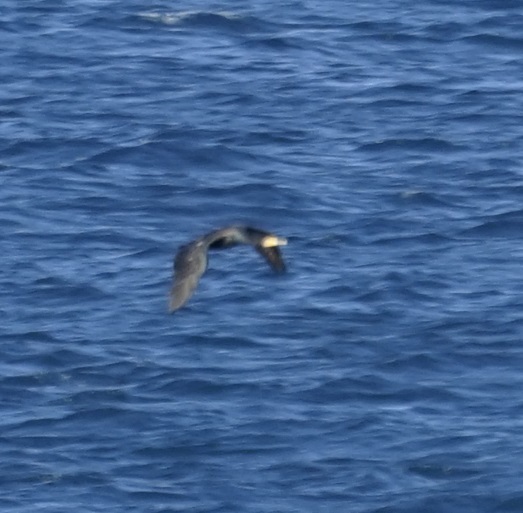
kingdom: Animalia
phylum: Chordata
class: Aves
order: Suliformes
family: Phalacrocoracidae
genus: Phalacrocorax
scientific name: Phalacrocorax carbo
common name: Great cormorant
